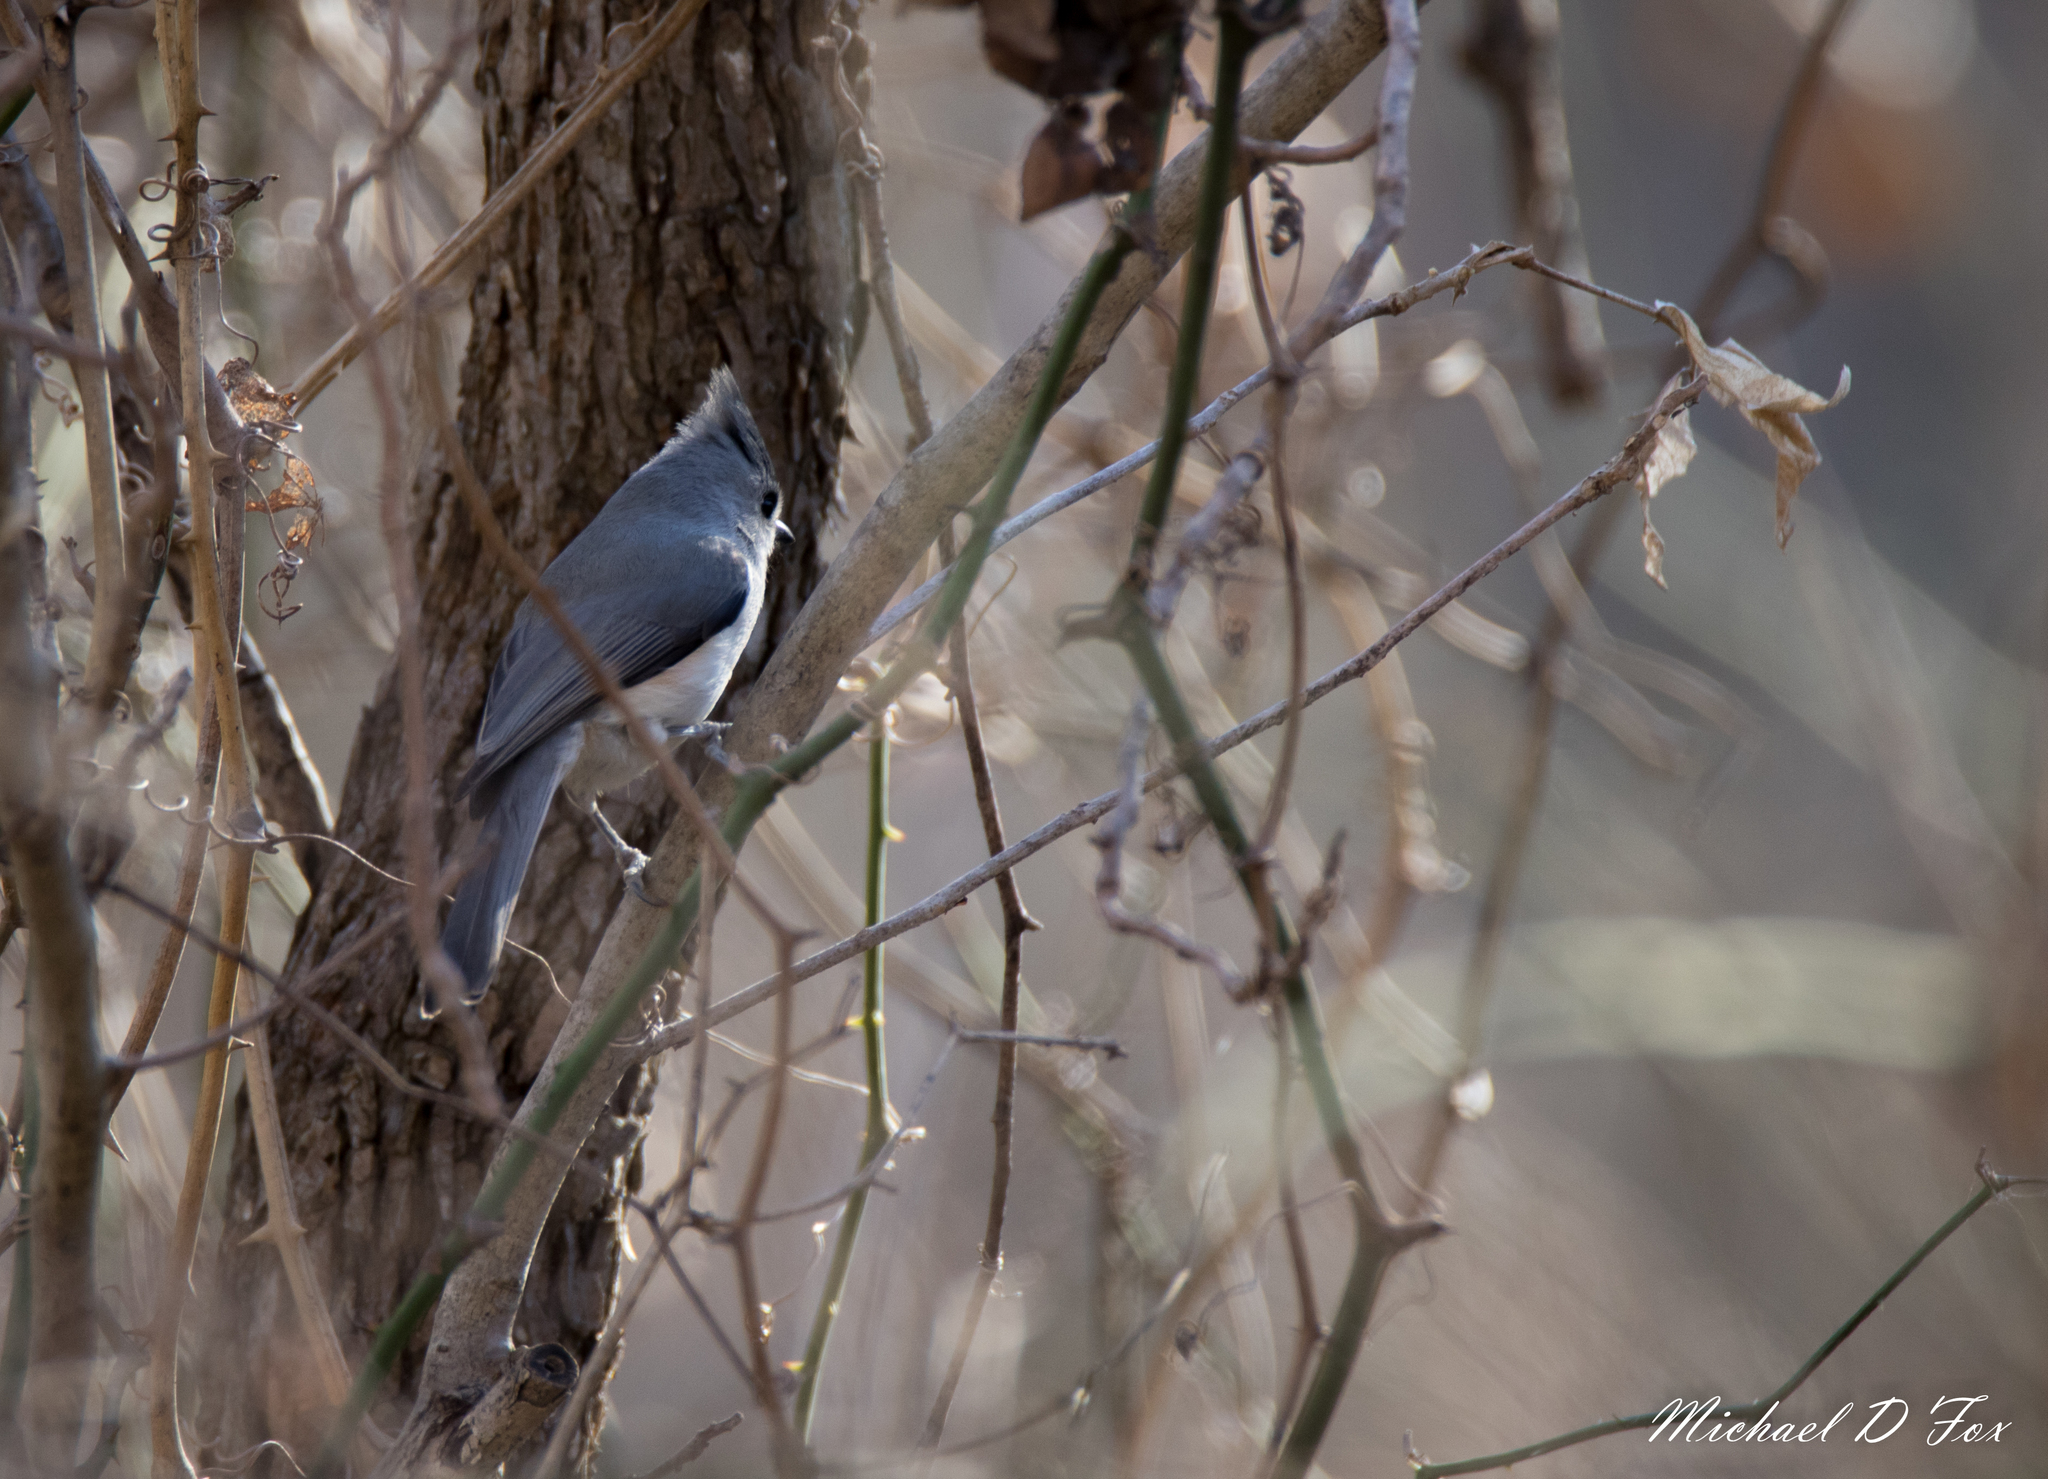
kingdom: Animalia
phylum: Chordata
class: Aves
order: Passeriformes
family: Paridae
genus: Baeolophus
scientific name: Baeolophus bicolor
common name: Tufted titmouse
